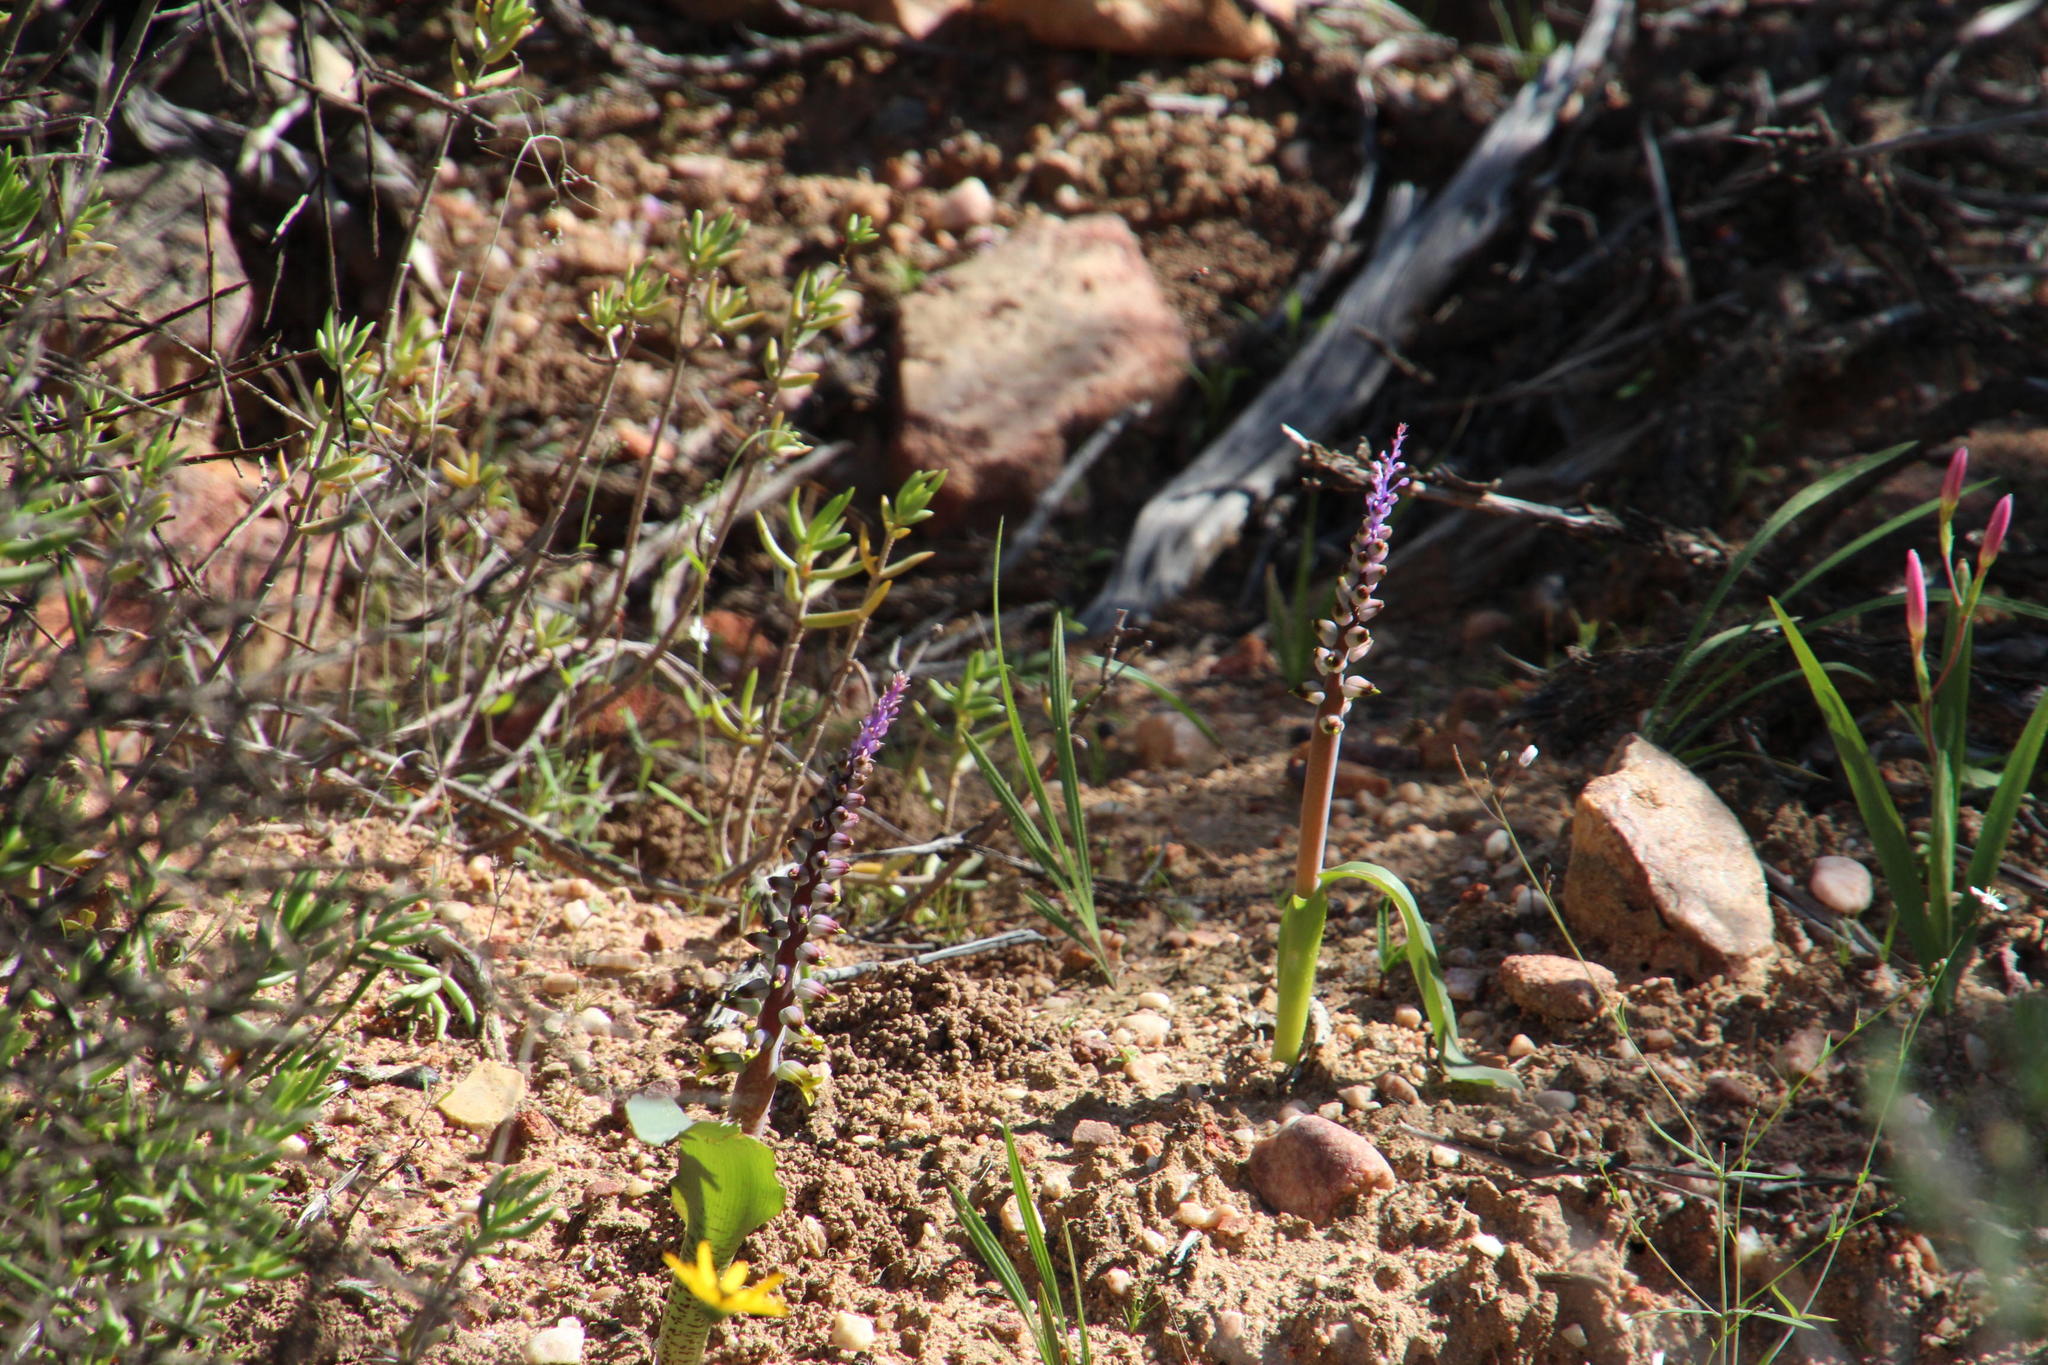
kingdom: Plantae
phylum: Tracheophyta
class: Liliopsida
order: Asparagales
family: Asparagaceae
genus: Lachenalia
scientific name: Lachenalia mutabilis
